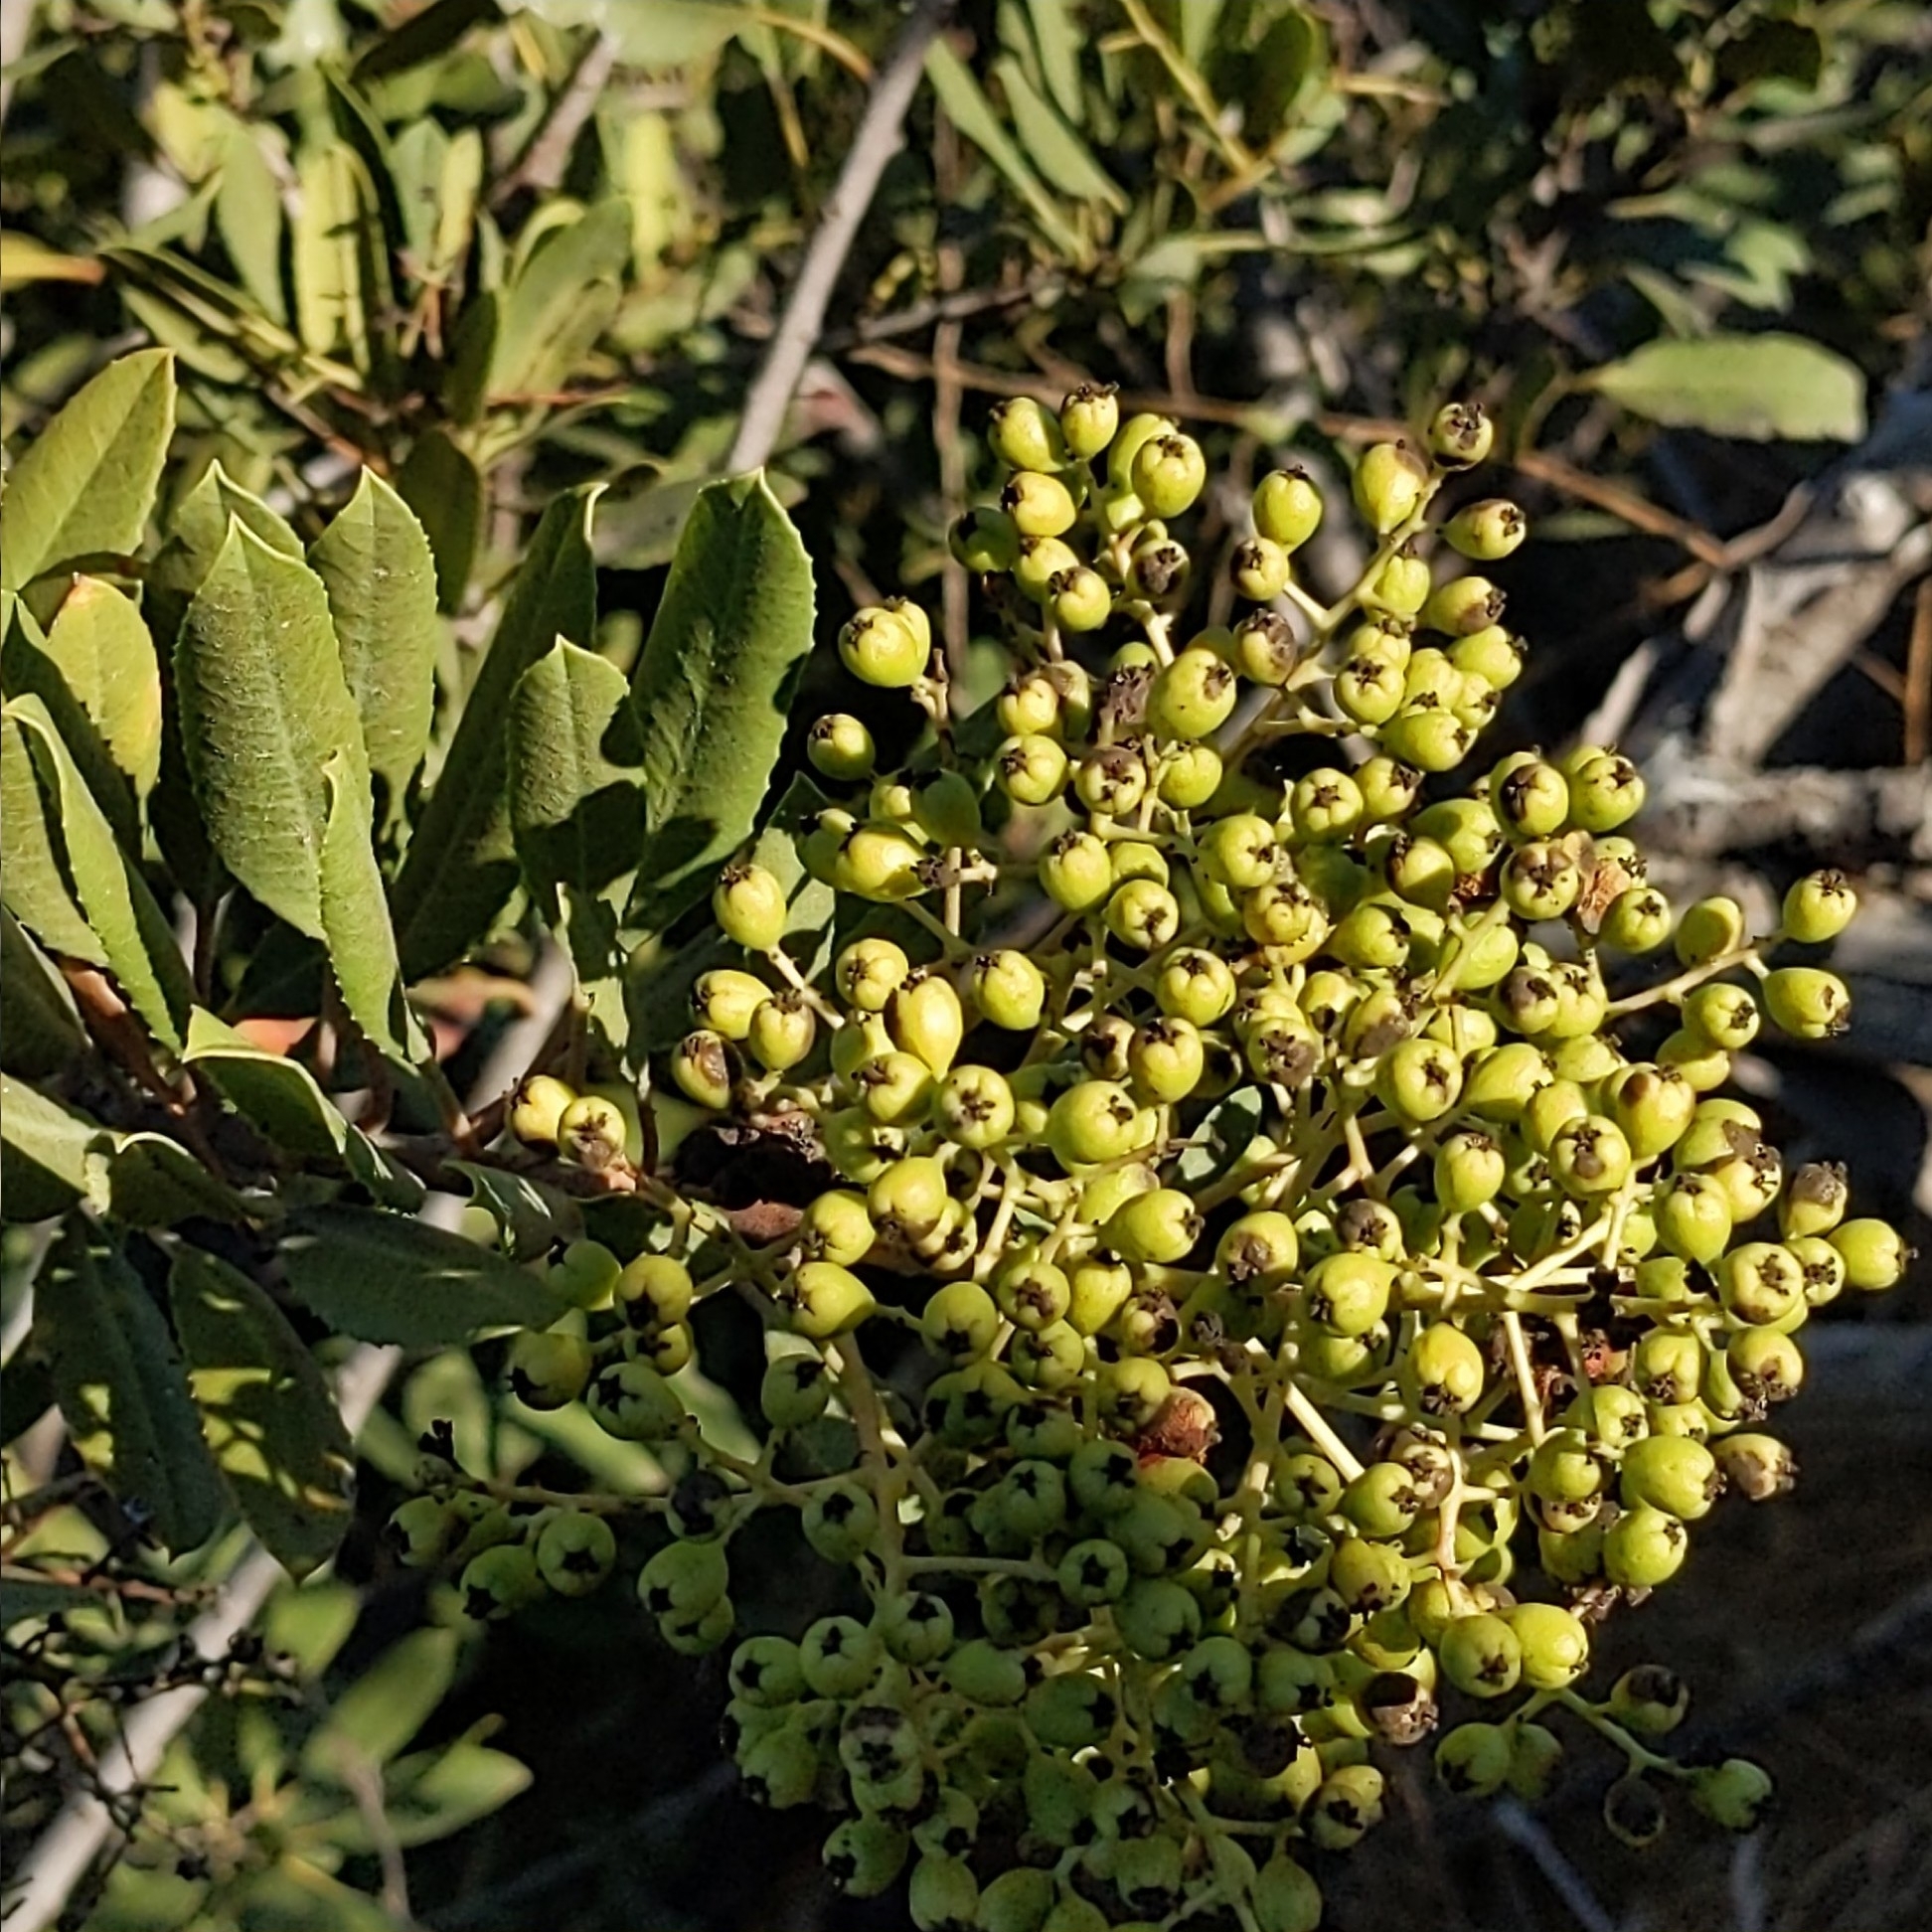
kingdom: Plantae
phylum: Tracheophyta
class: Magnoliopsida
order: Rosales
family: Rosaceae
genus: Heteromeles
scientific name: Heteromeles arbutifolia
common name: California-holly
